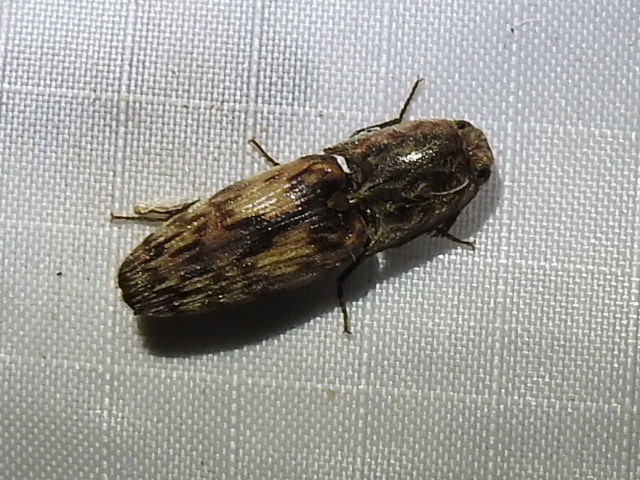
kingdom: Animalia
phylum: Arthropoda
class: Insecta
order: Coleoptera
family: Elateridae
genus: Pherhimius
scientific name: Pherhimius fascicularis
